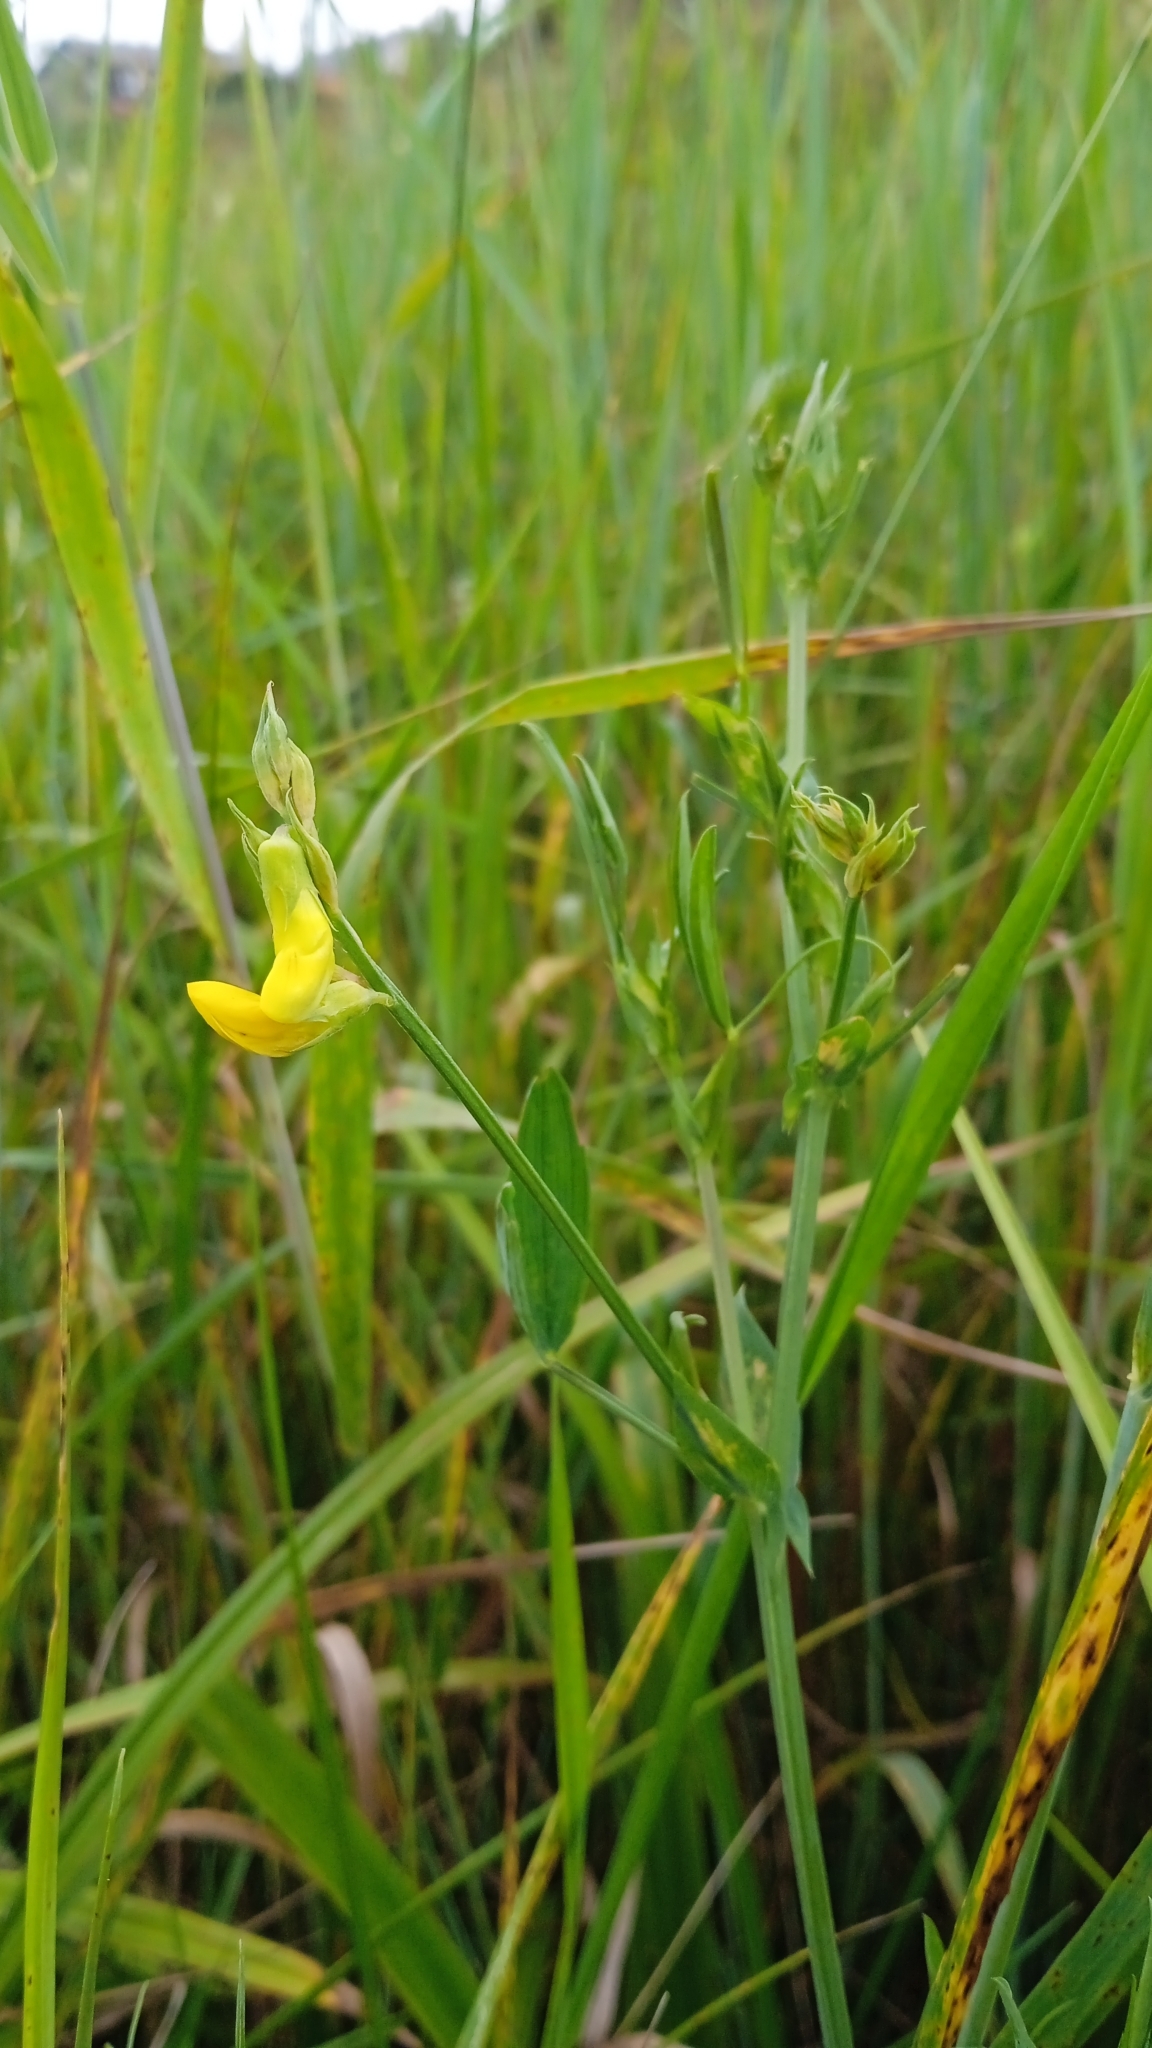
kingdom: Plantae
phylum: Tracheophyta
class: Magnoliopsida
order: Fabales
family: Fabaceae
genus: Lathyrus
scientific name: Lathyrus pratensis
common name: Meadow vetchling
